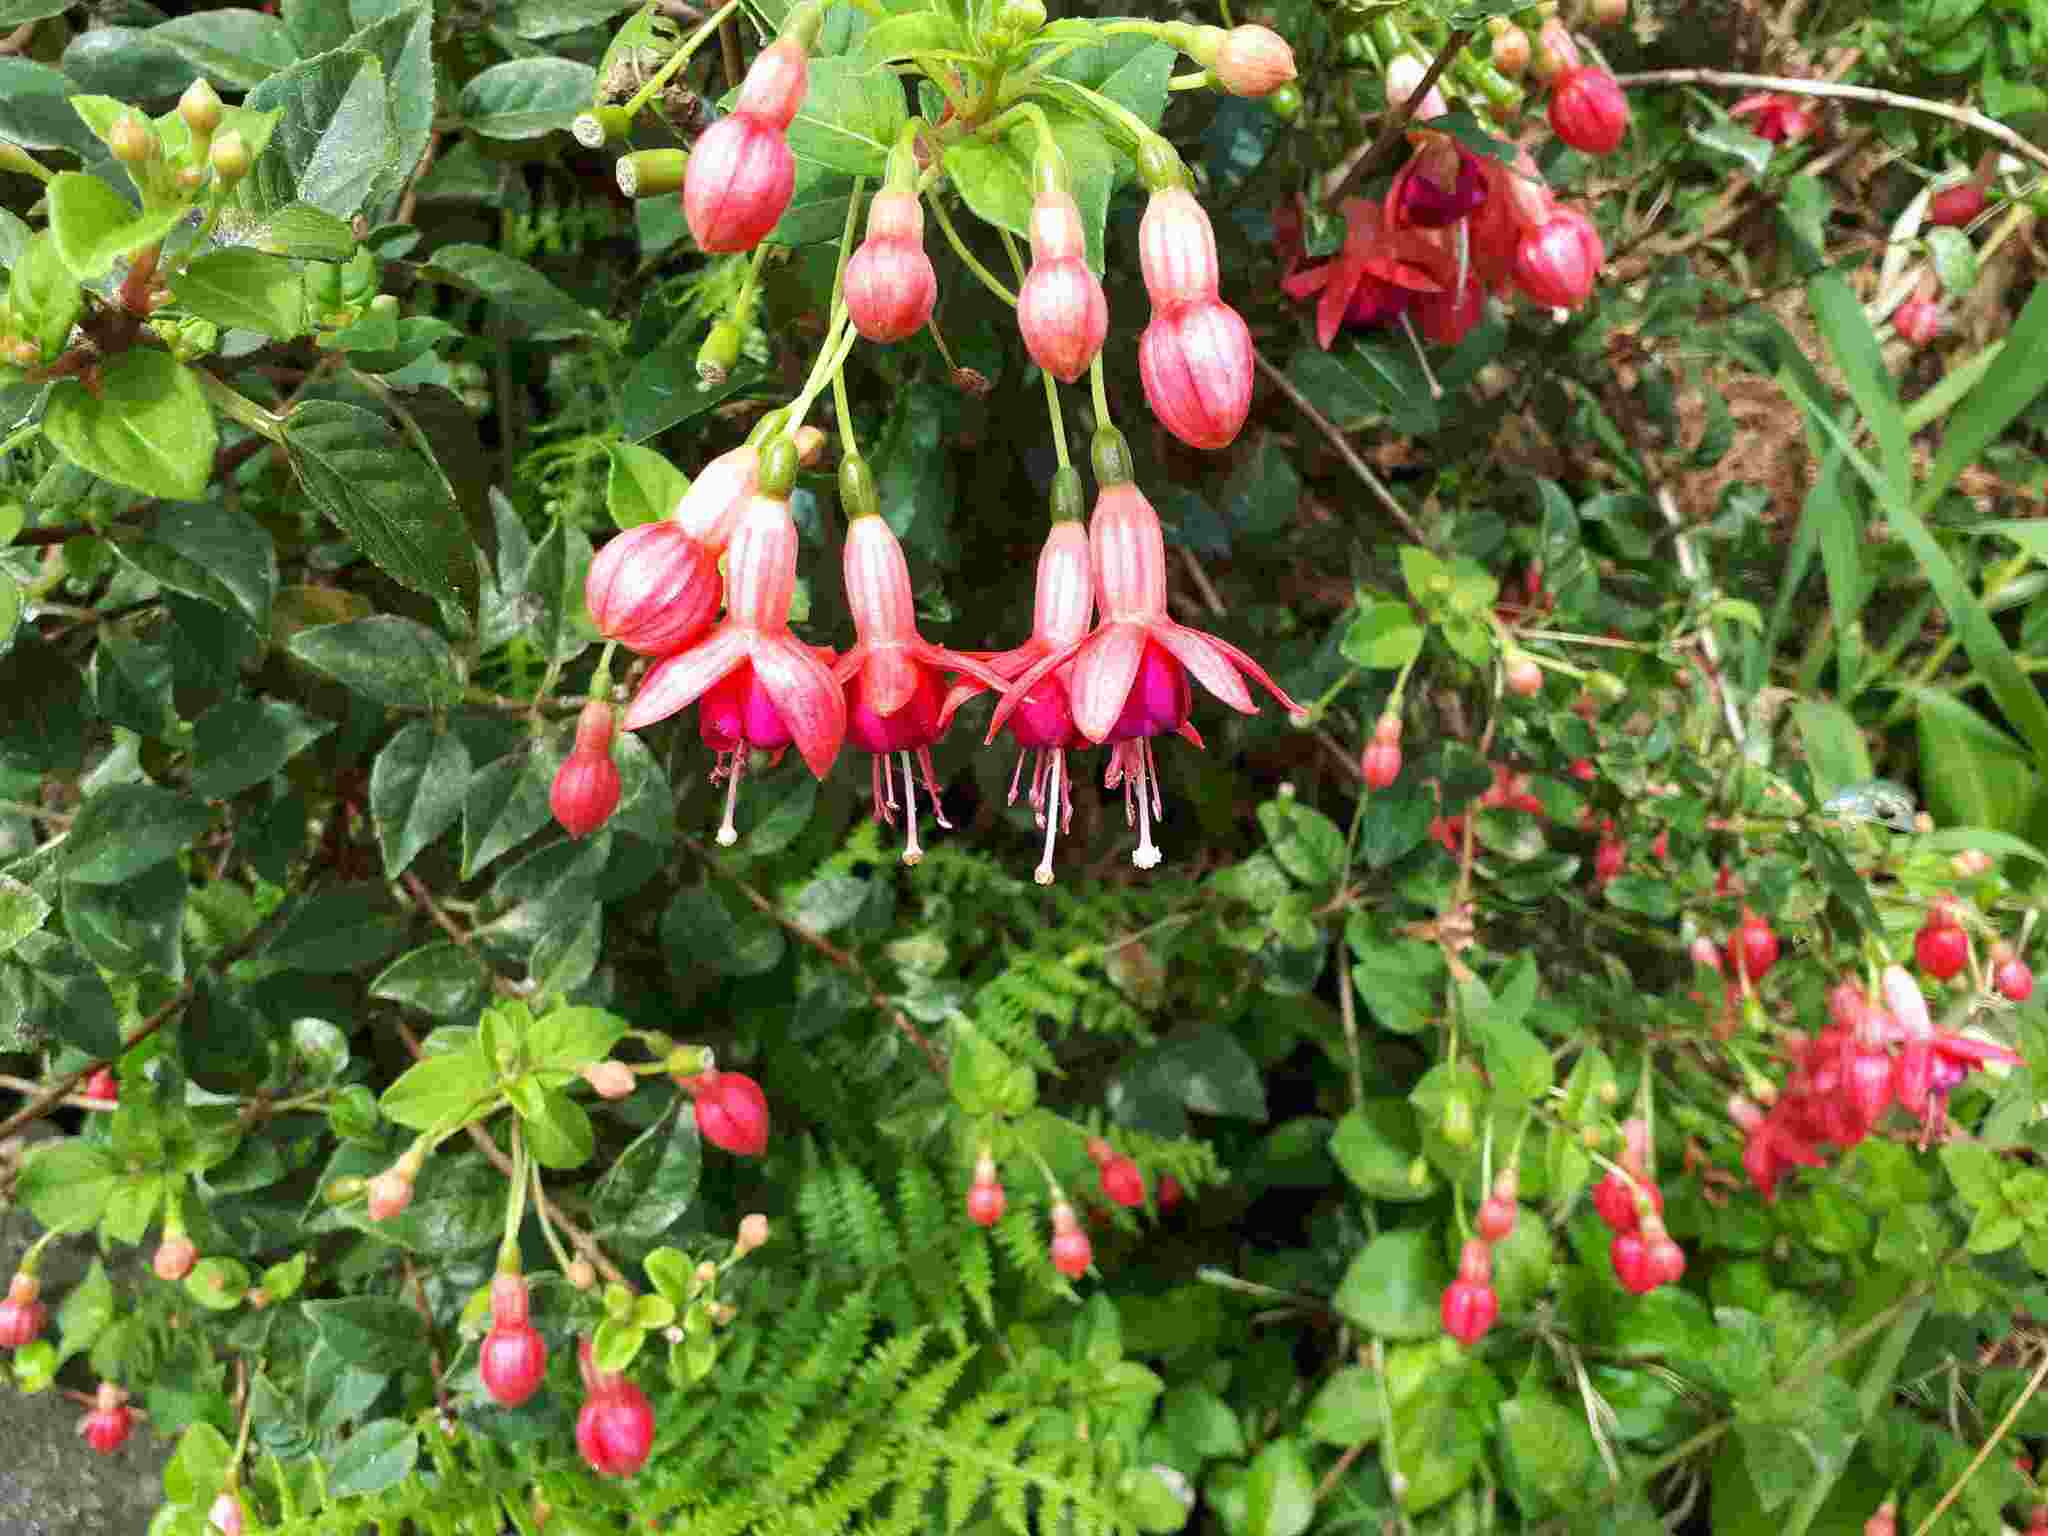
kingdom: Plantae
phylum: Tracheophyta
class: Magnoliopsida
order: Myrtales
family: Onagraceae
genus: Fuchsia
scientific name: Fuchsia magellanica
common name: Hardy fuchsia
